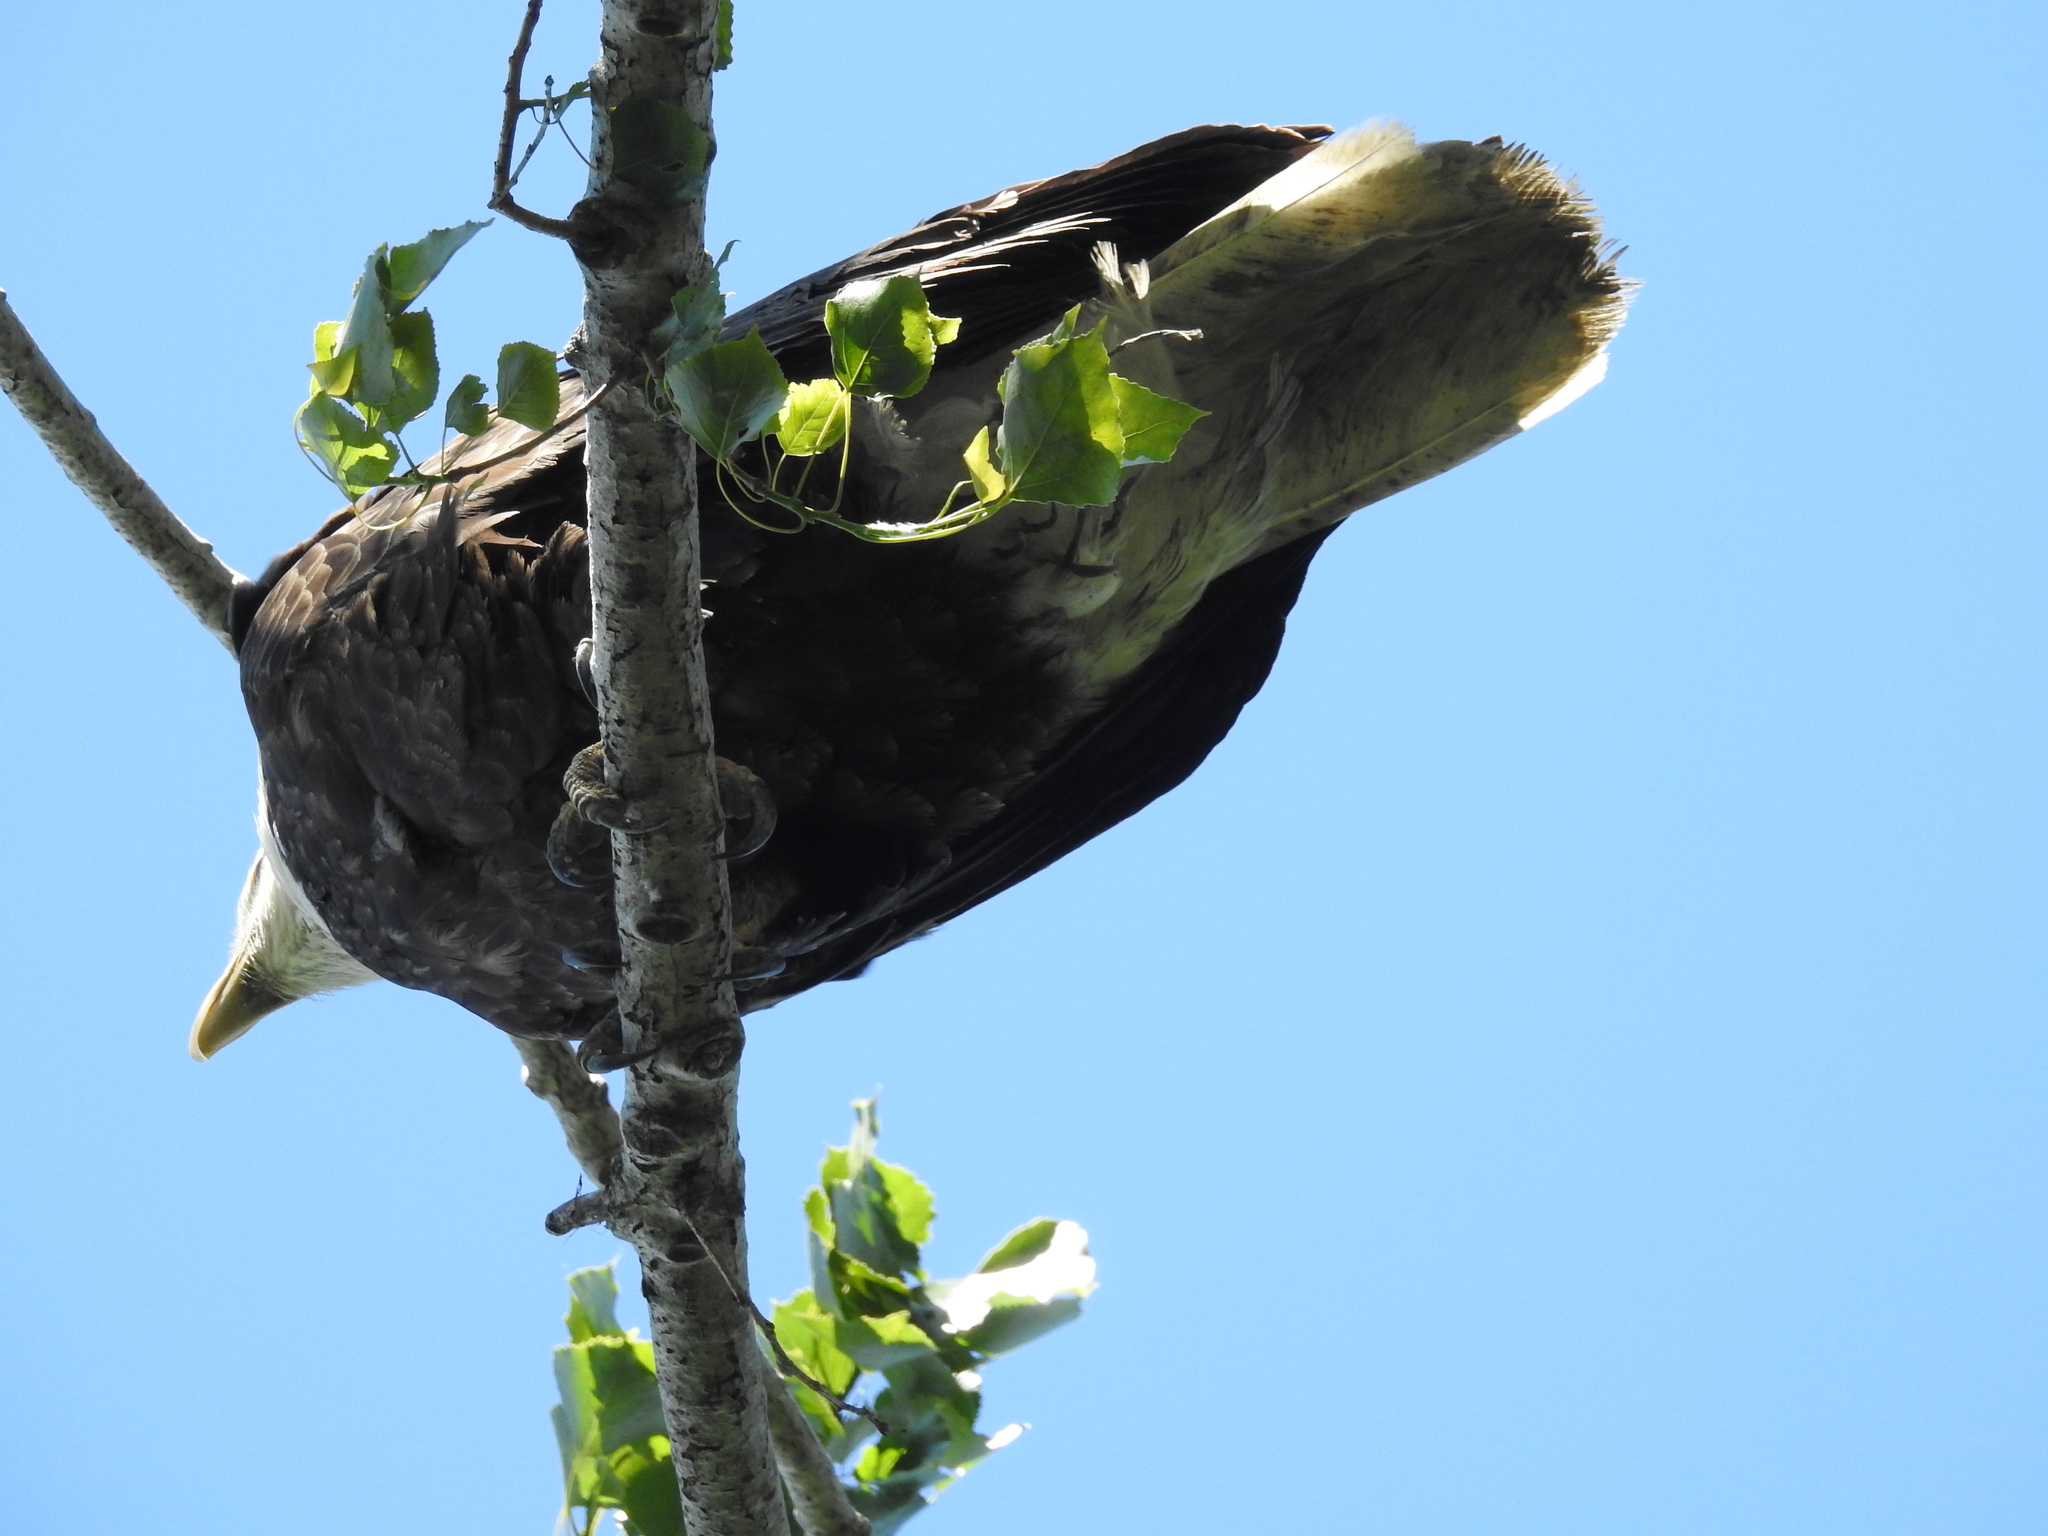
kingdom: Animalia
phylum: Chordata
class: Aves
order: Accipitriformes
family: Accipitridae
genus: Haliaeetus
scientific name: Haliaeetus leucocephalus
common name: Bald eagle
